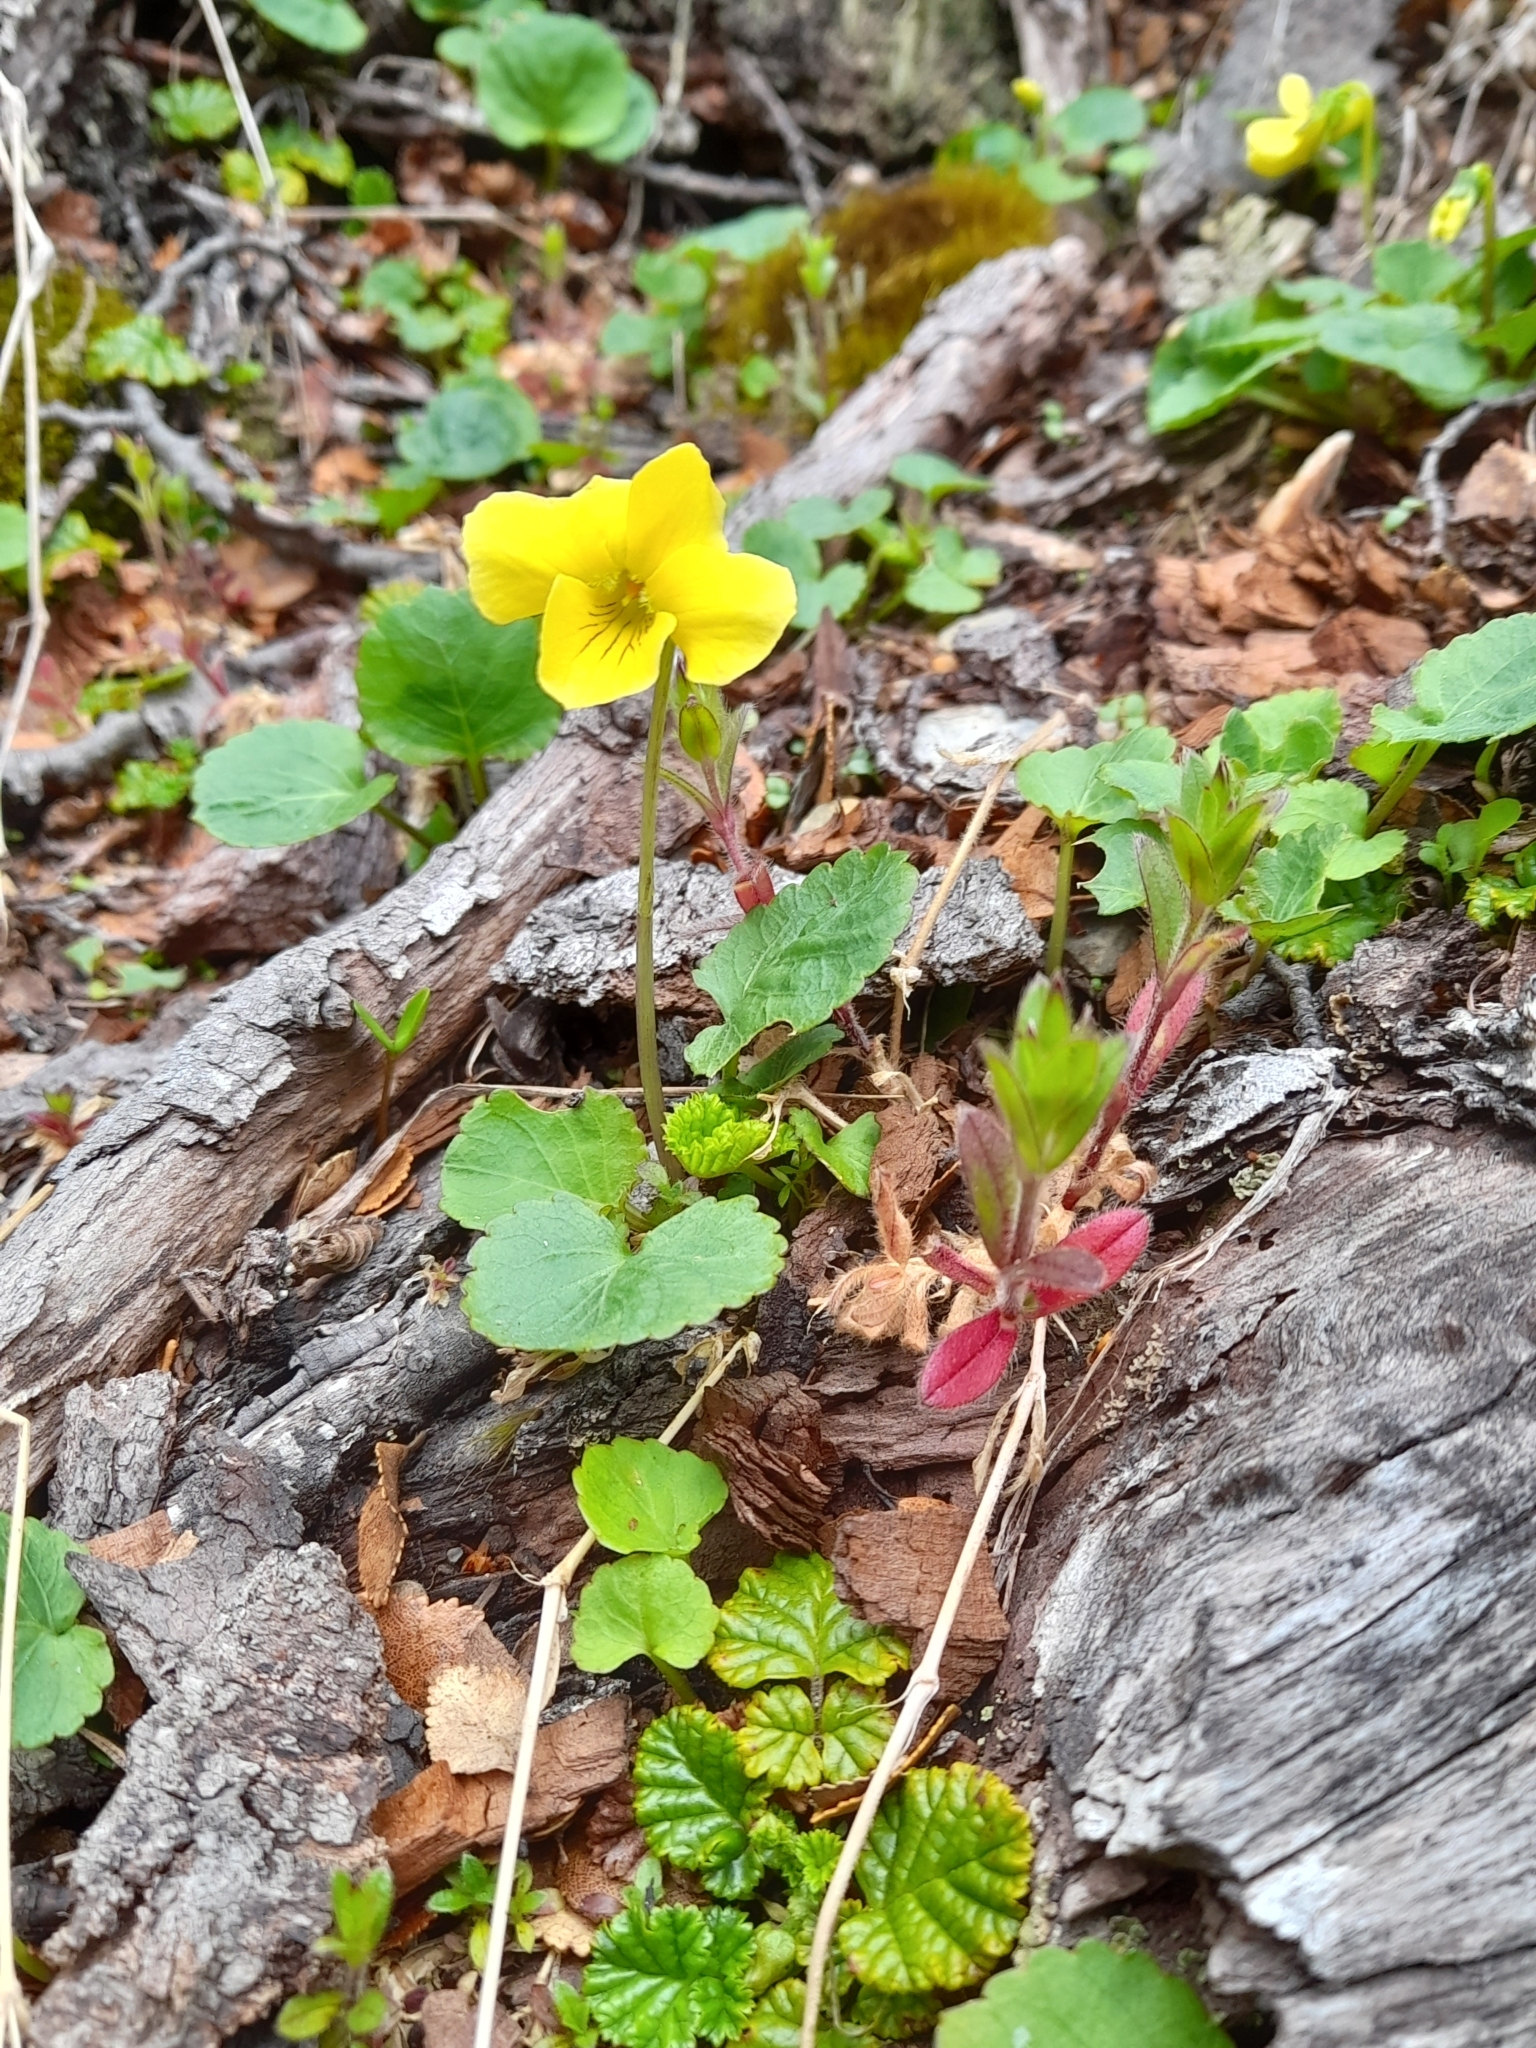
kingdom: Plantae
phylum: Tracheophyta
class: Magnoliopsida
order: Malpighiales
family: Violaceae
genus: Viola
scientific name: Viola reichei
